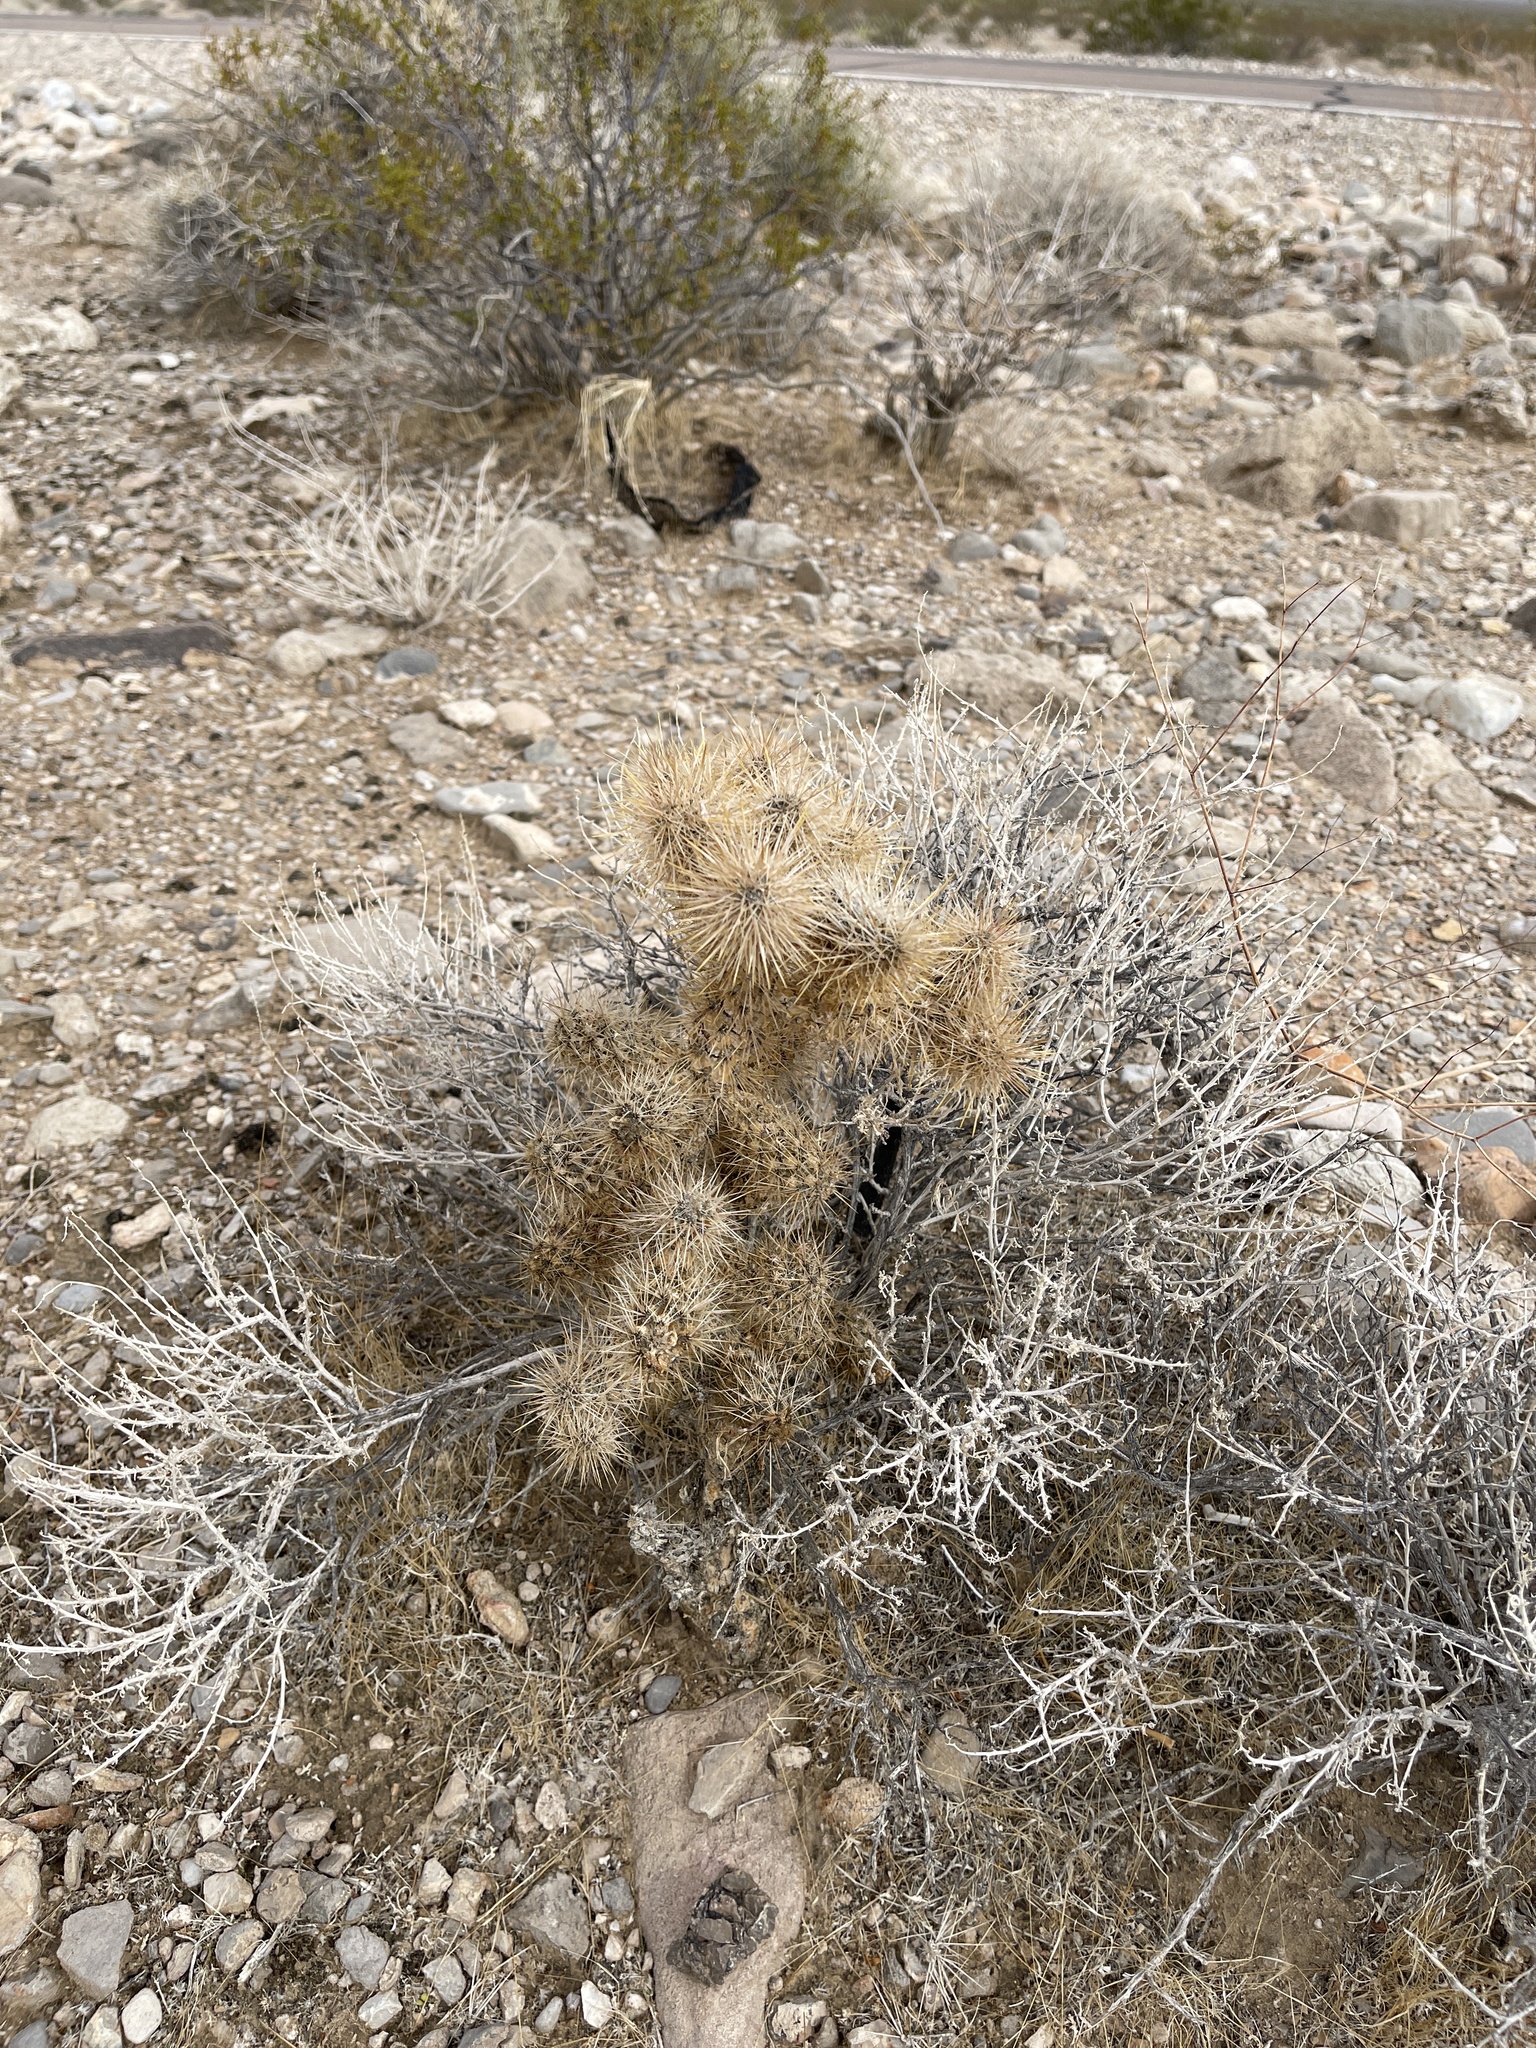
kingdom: Plantae
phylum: Tracheophyta
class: Magnoliopsida
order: Caryophyllales
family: Cactaceae
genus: Cylindropuntia
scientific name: Cylindropuntia echinocarpa
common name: Ground cholla
